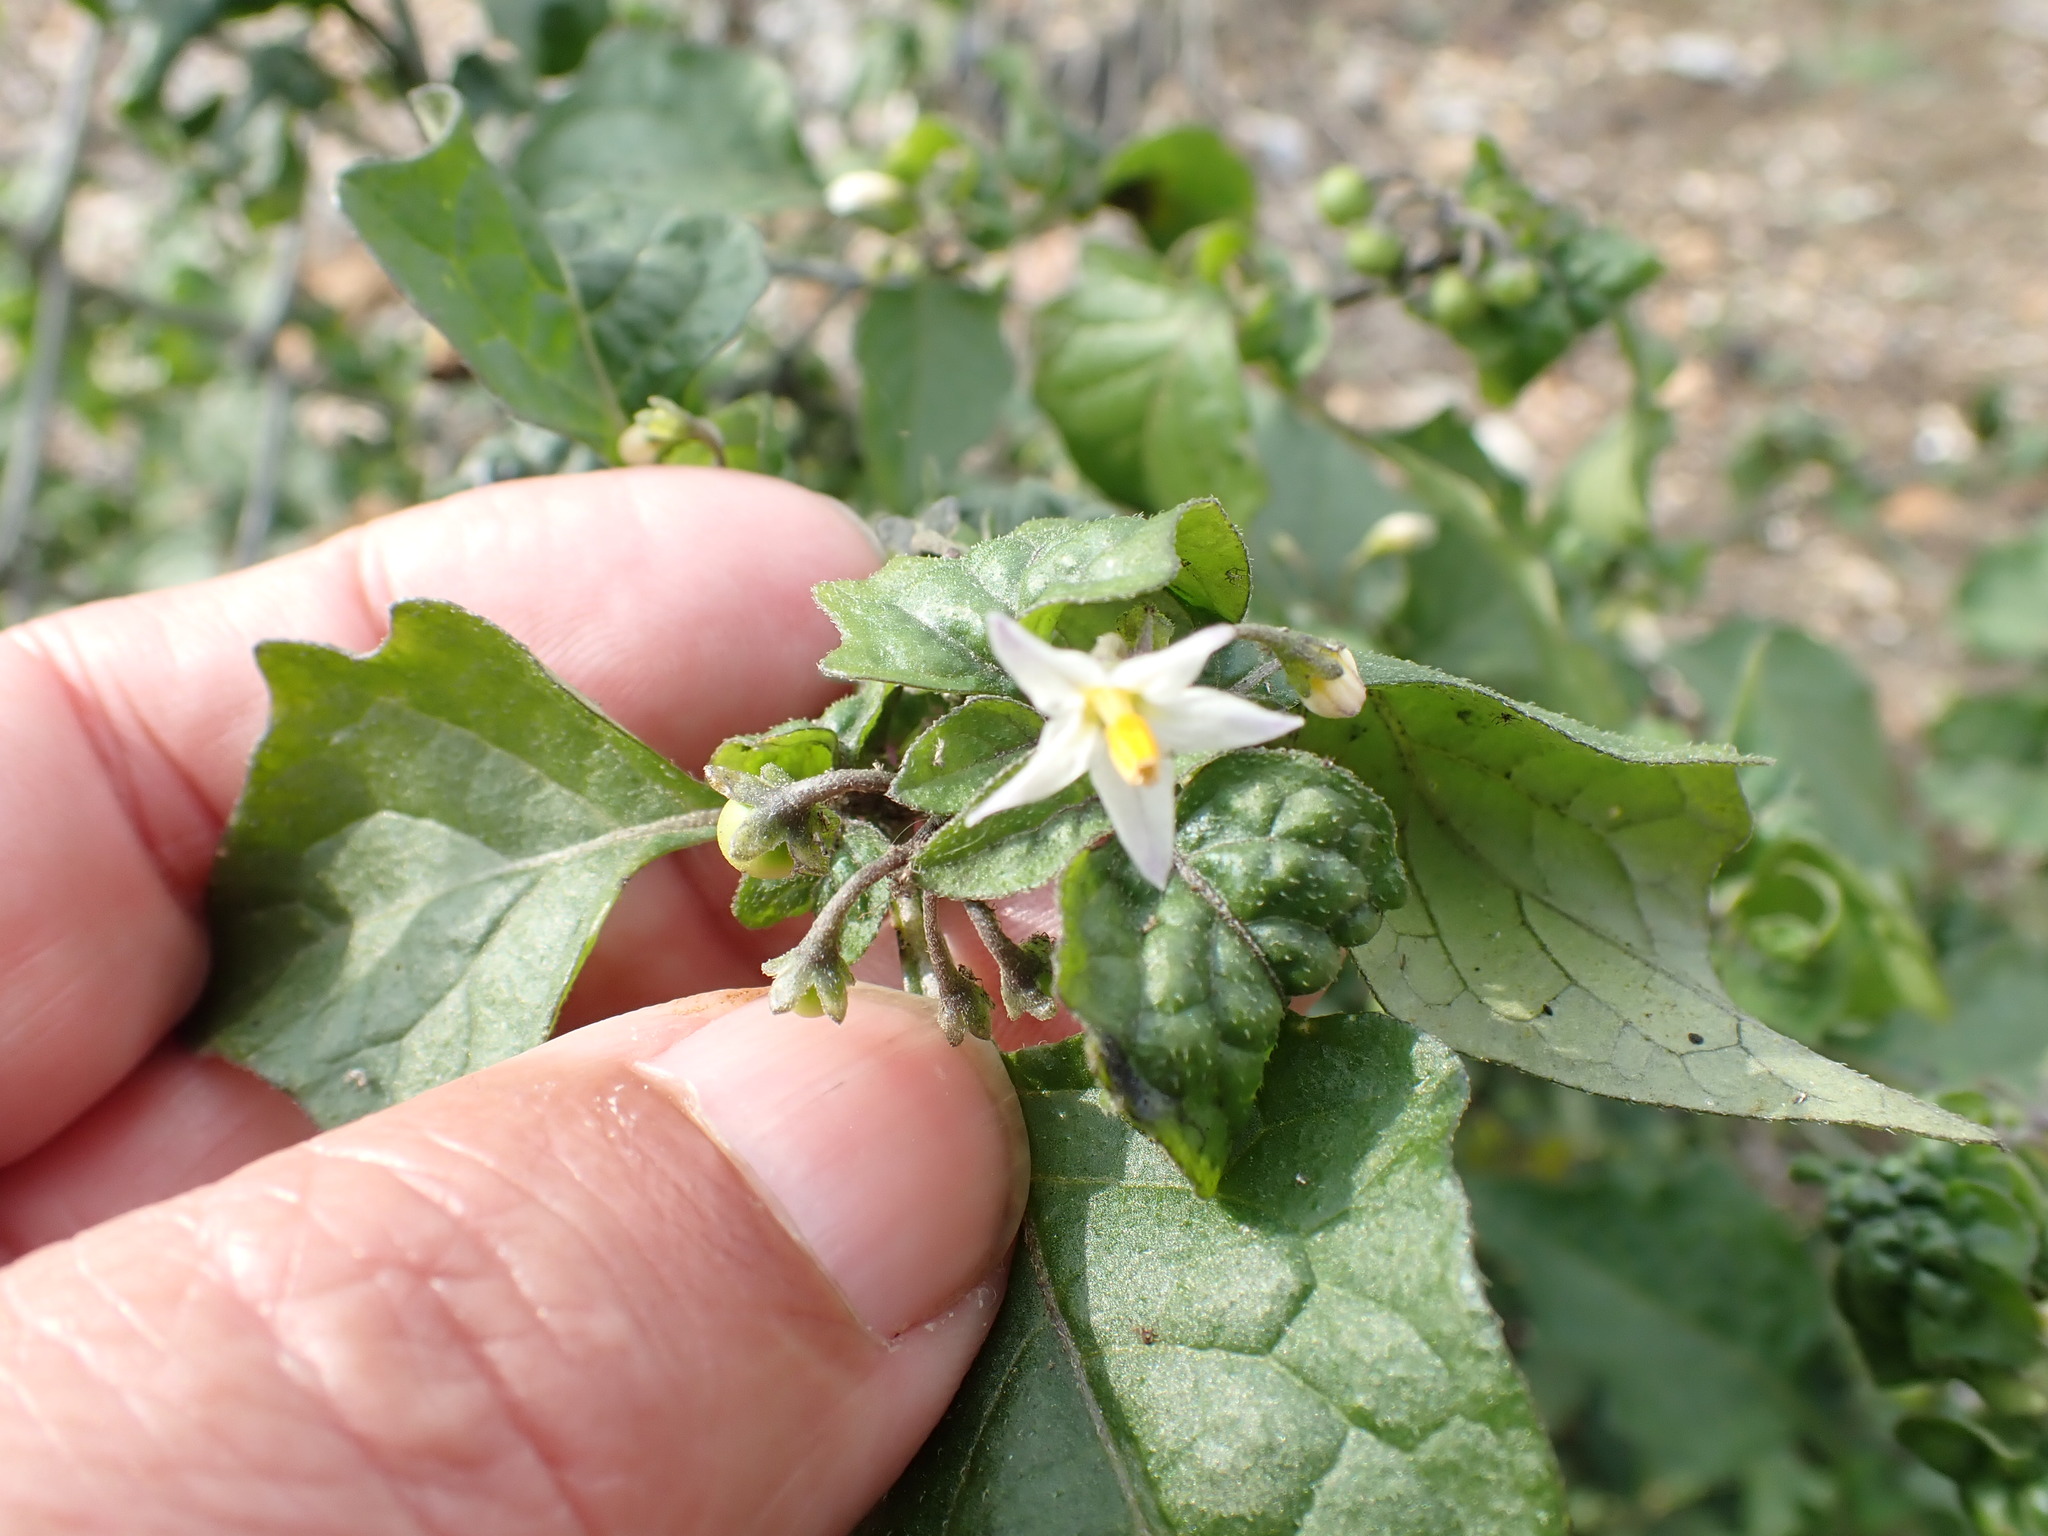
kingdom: Plantae
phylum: Tracheophyta
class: Magnoliopsida
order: Solanales
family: Solanaceae
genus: Solanum
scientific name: Solanum nigrum
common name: Black nightshade
